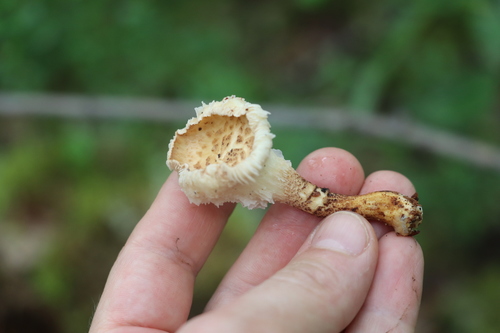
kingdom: Fungi
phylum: Basidiomycota
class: Agaricomycetes
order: Gloeophyllales
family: Gloeophyllaceae
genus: Neolentinus
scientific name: Neolentinus lepideus
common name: Scaly sawgill
